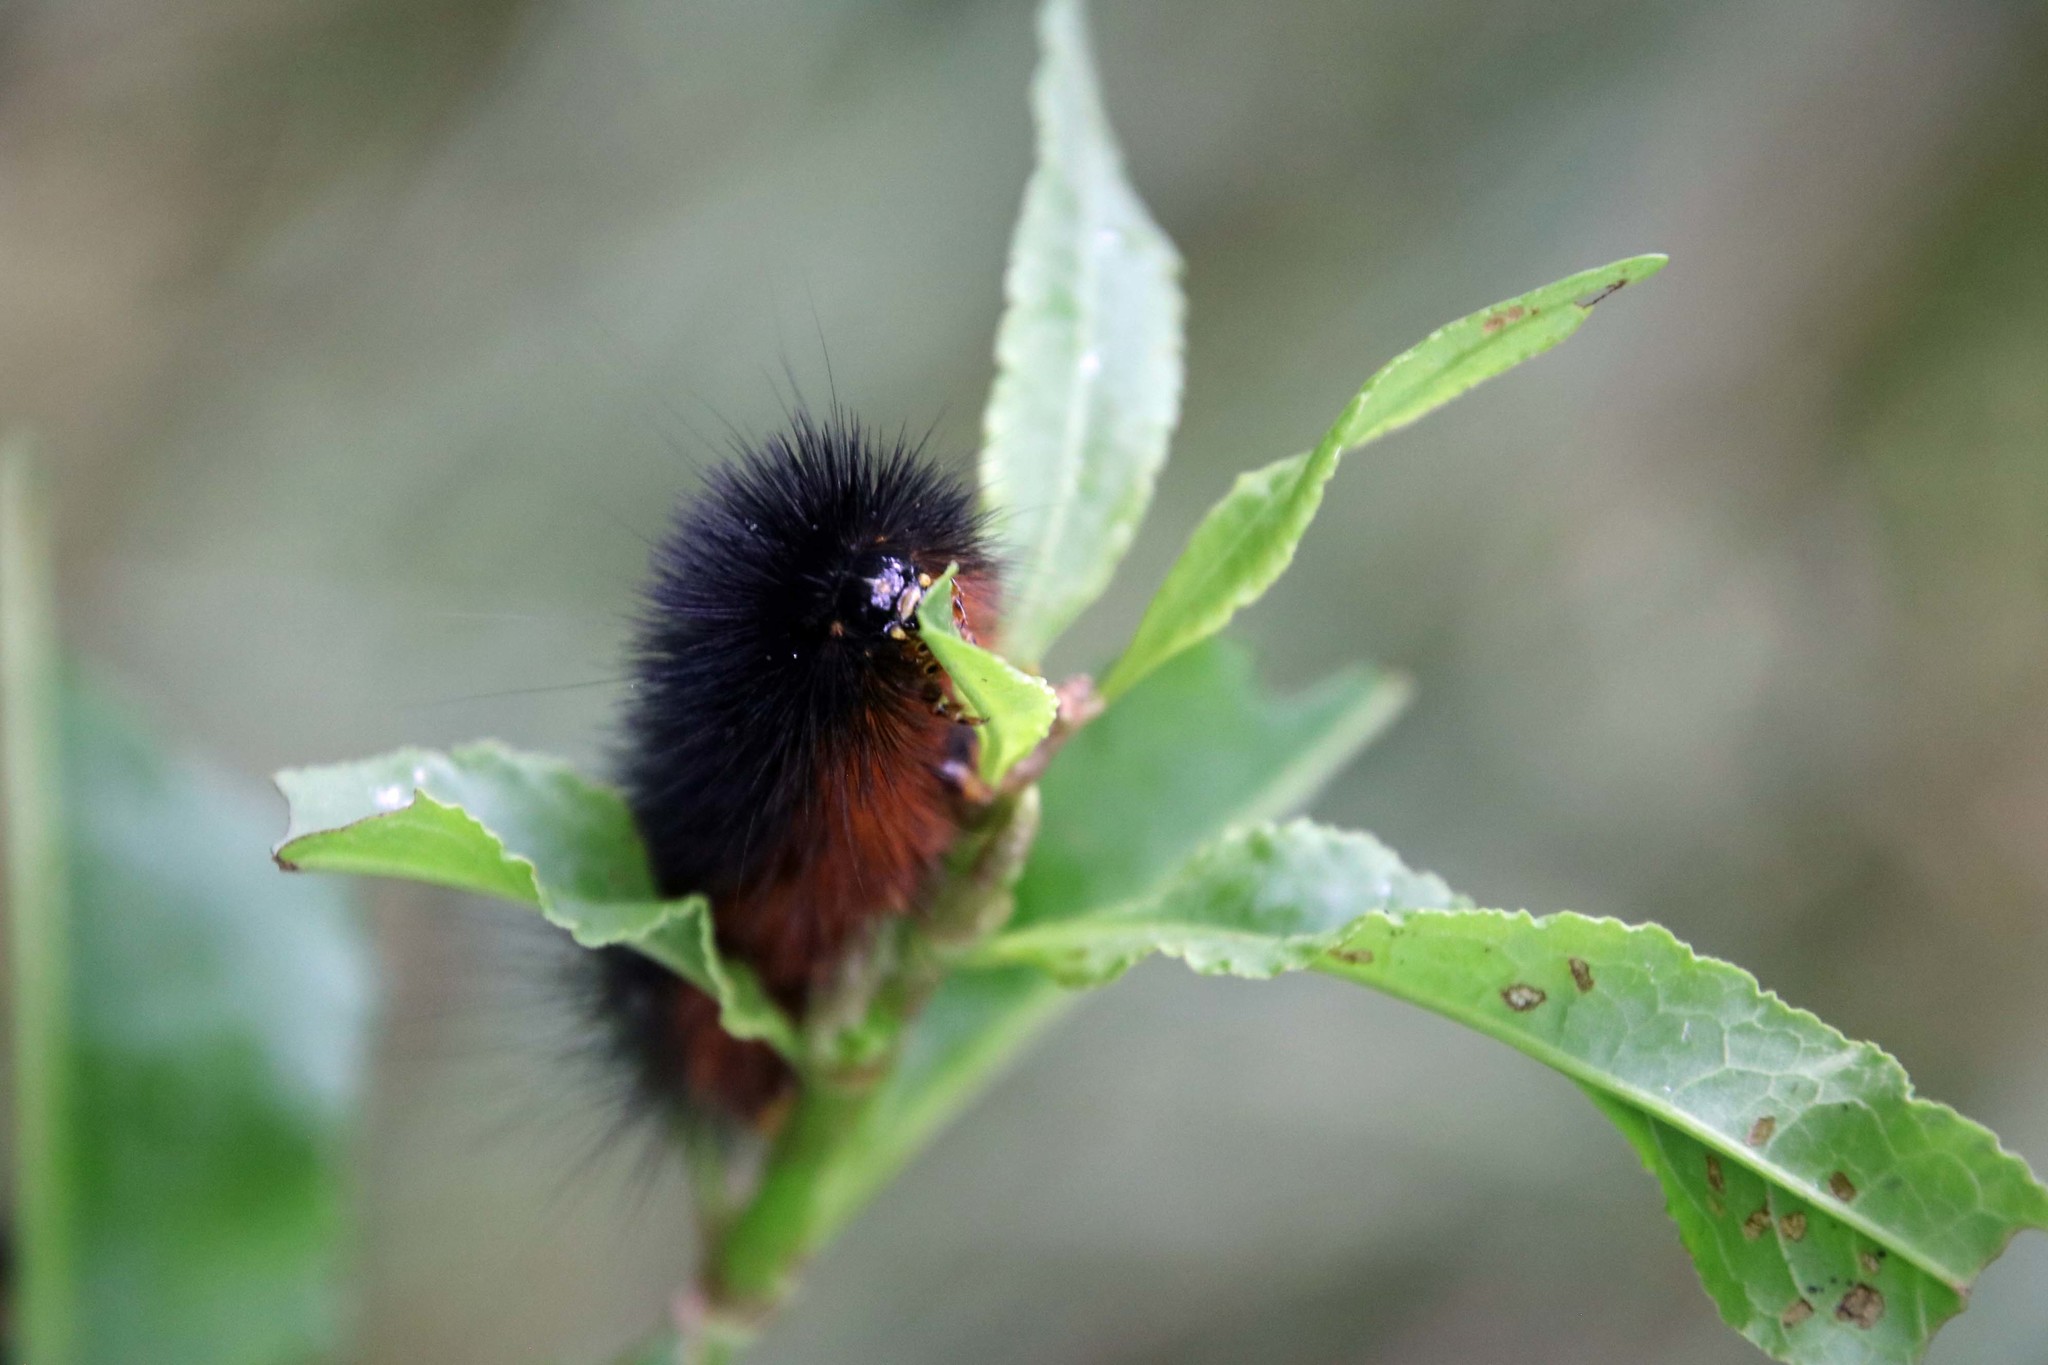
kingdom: Animalia
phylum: Arthropoda
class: Insecta
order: Lepidoptera
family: Erebidae
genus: Estigmene
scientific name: Estigmene acrea
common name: Salt marsh moth
